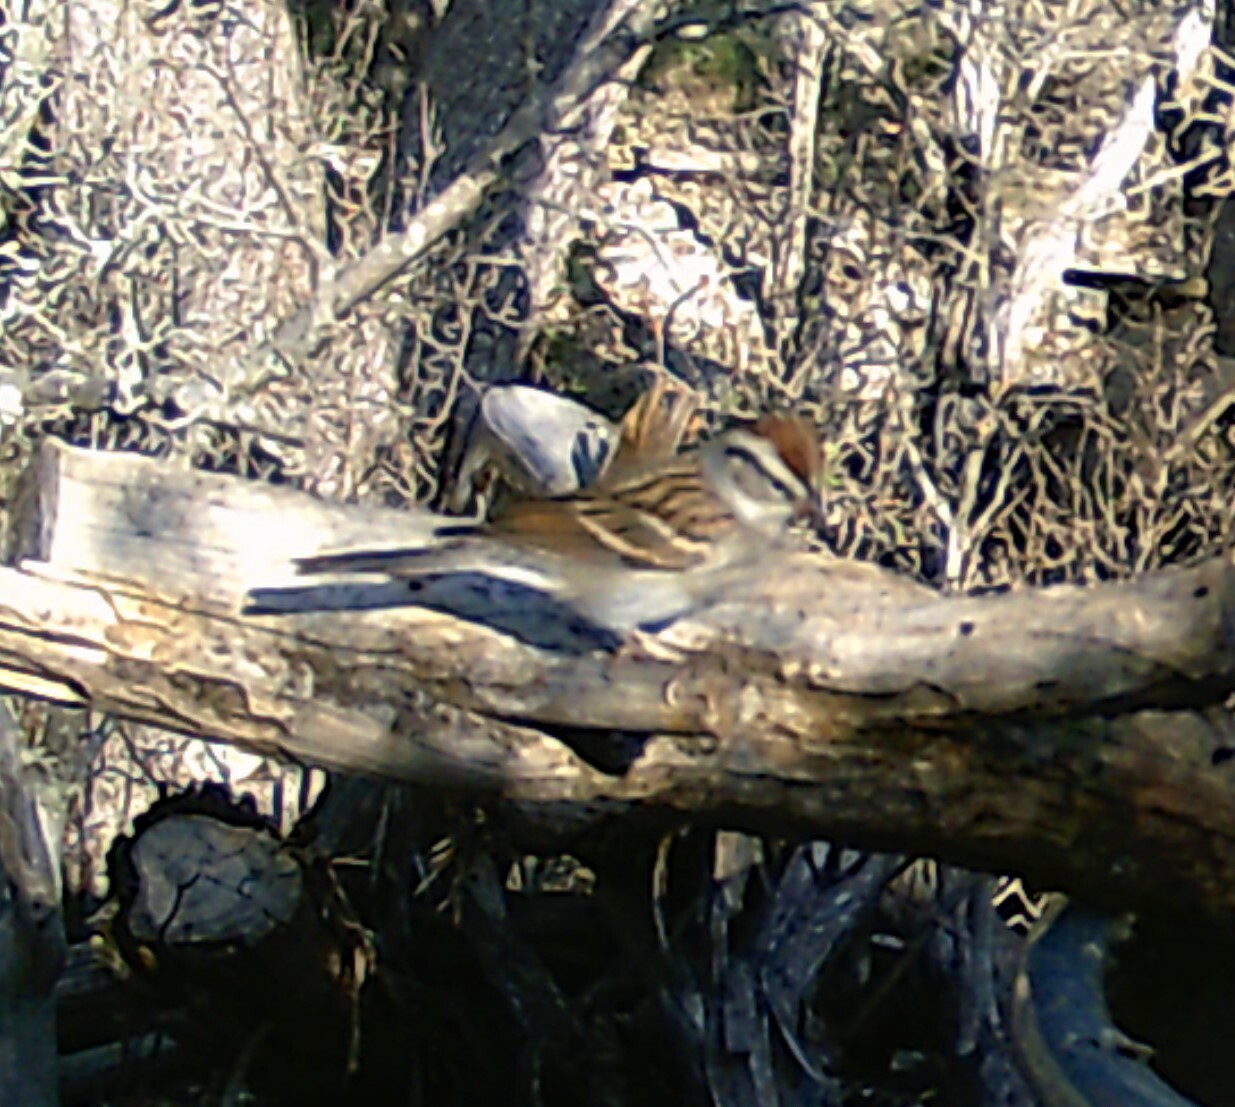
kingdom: Animalia
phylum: Chordata
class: Aves
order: Passeriformes
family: Passerellidae
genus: Spizella
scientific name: Spizella passerina
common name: Chipping sparrow
